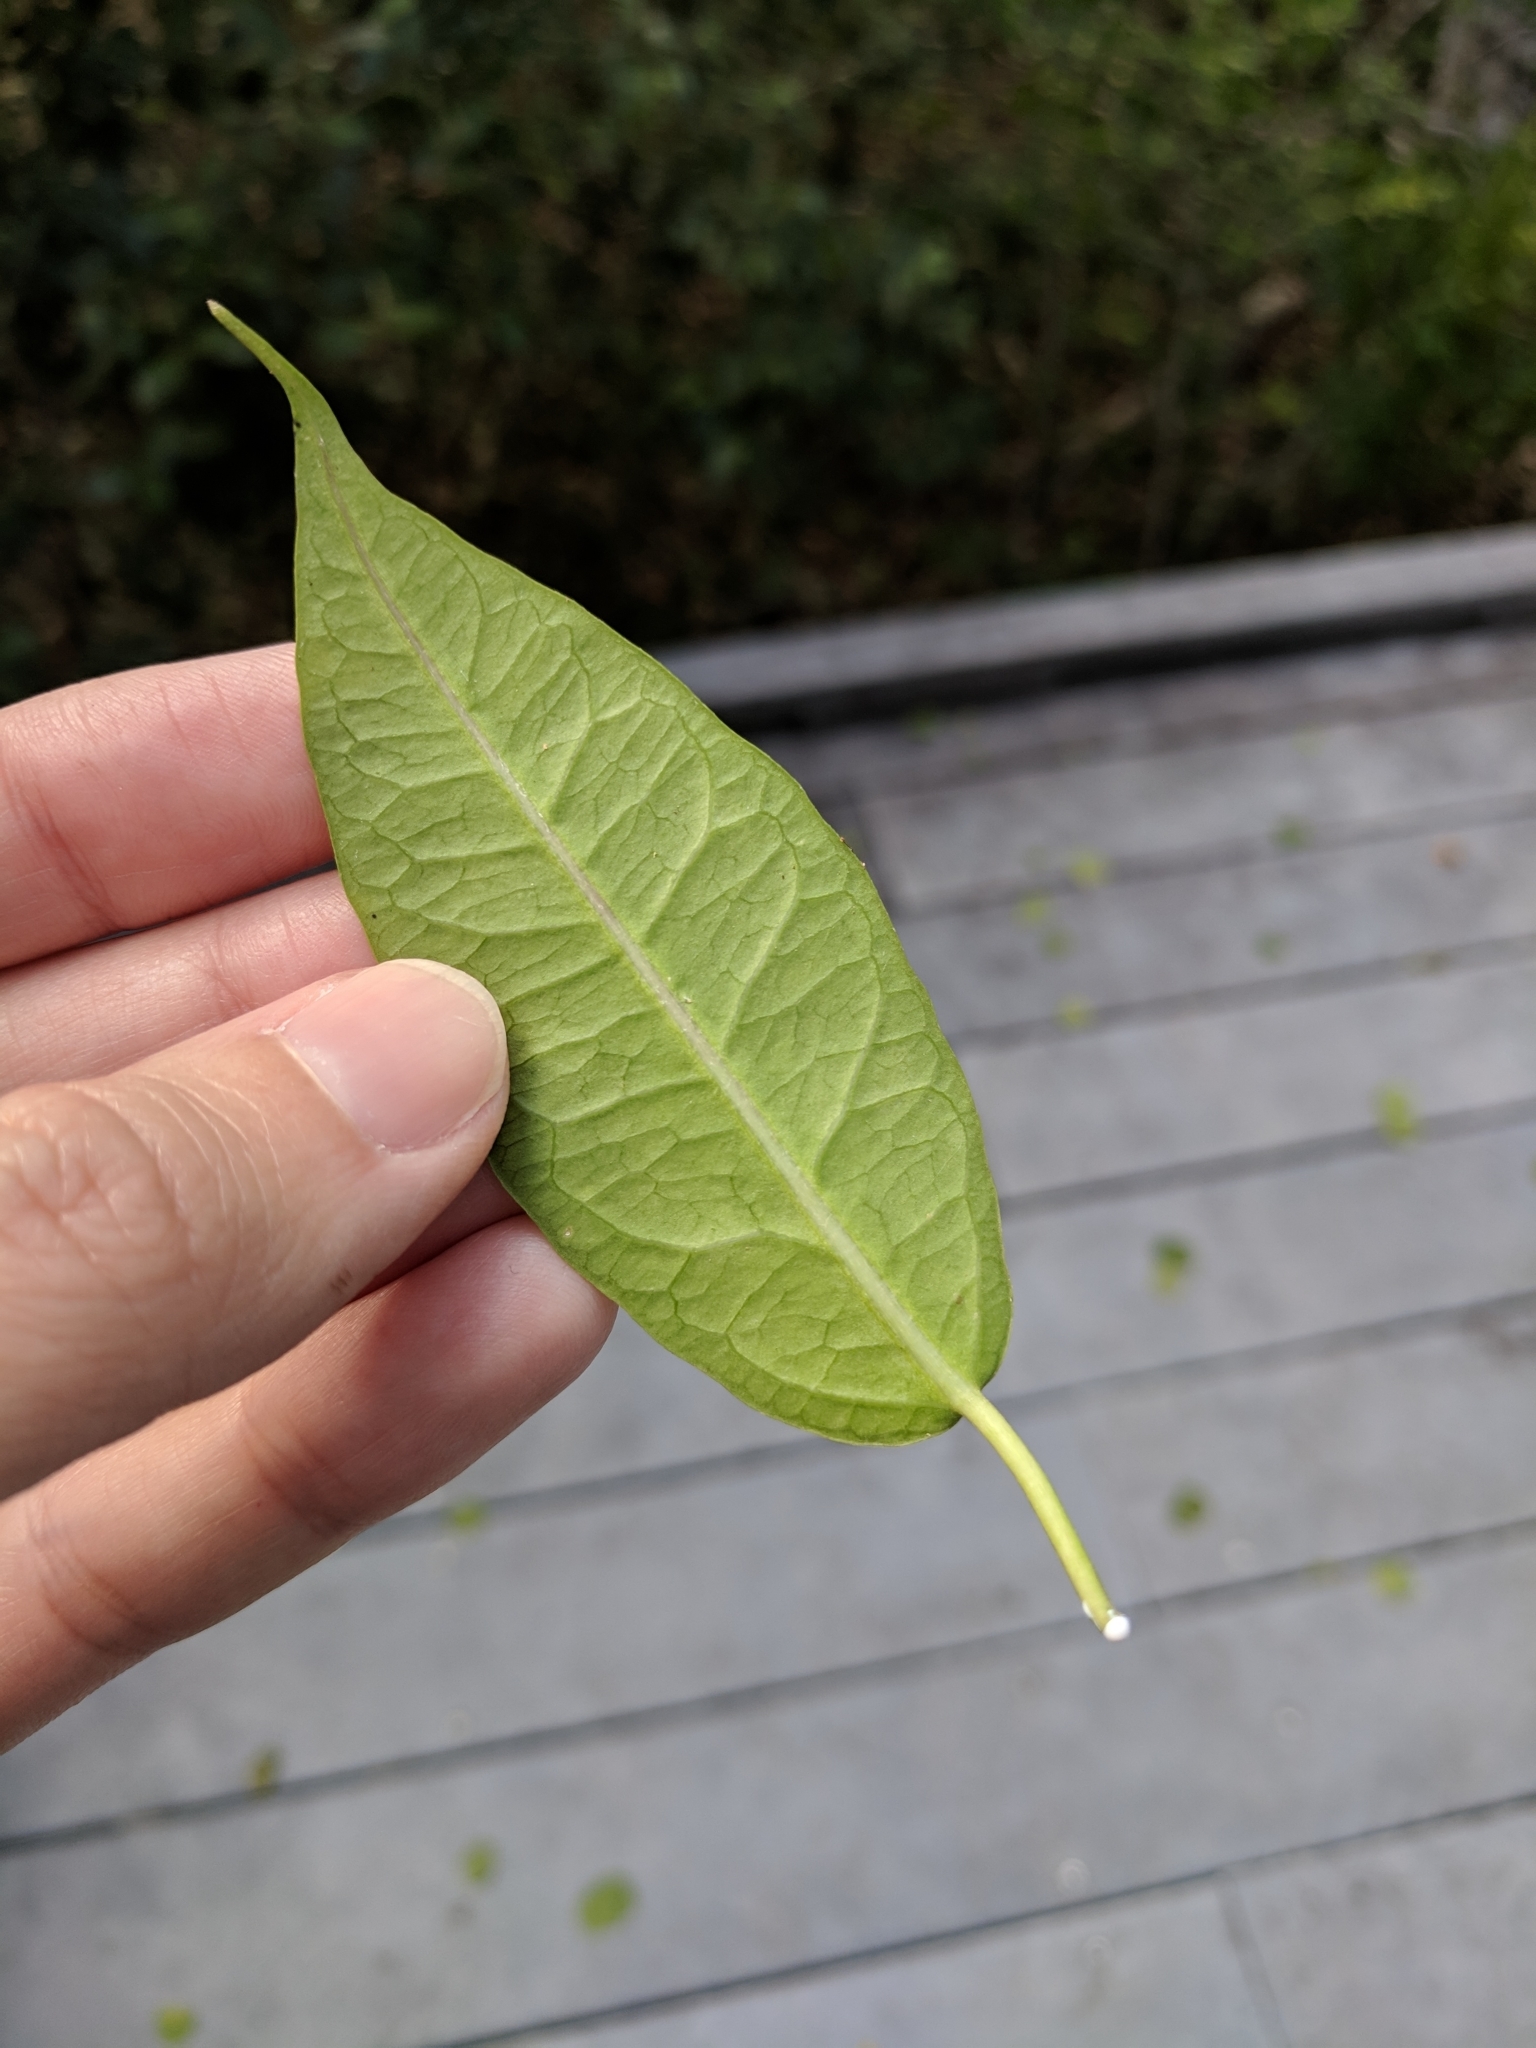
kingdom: Plantae
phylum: Tracheophyta
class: Magnoliopsida
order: Gentianales
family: Apocynaceae
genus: Funastrum
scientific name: Funastrum clausum
